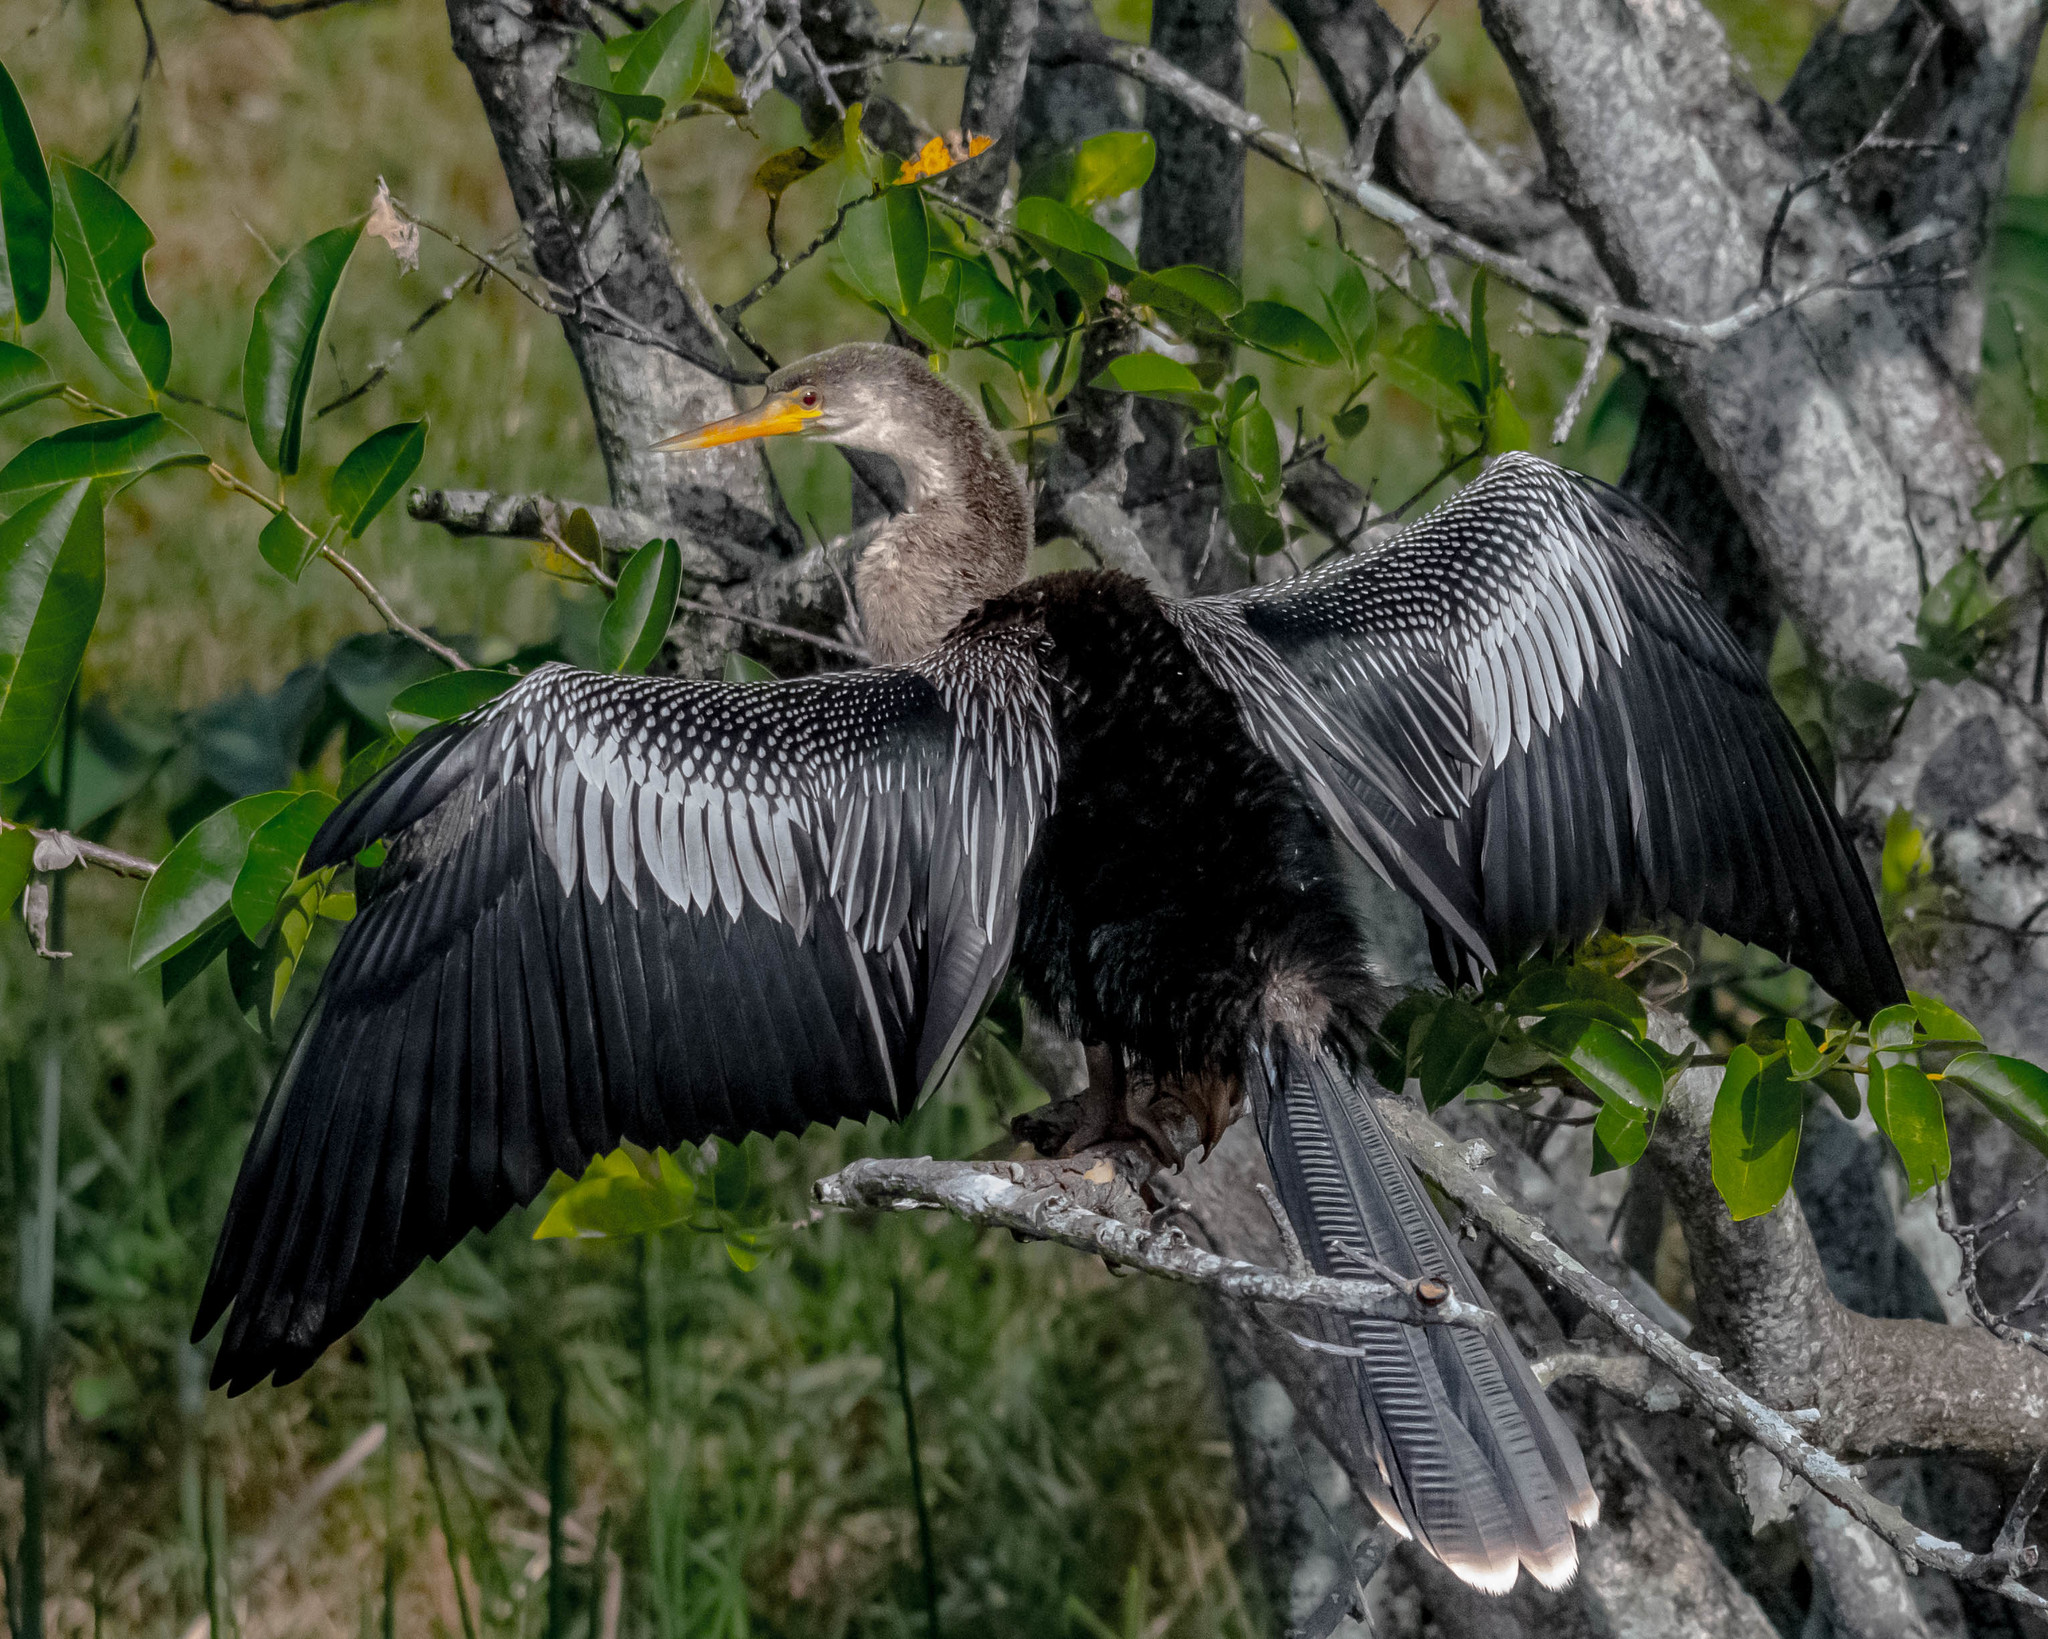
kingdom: Animalia
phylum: Chordata
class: Aves
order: Suliformes
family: Anhingidae
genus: Anhinga
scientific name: Anhinga anhinga
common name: Anhinga
